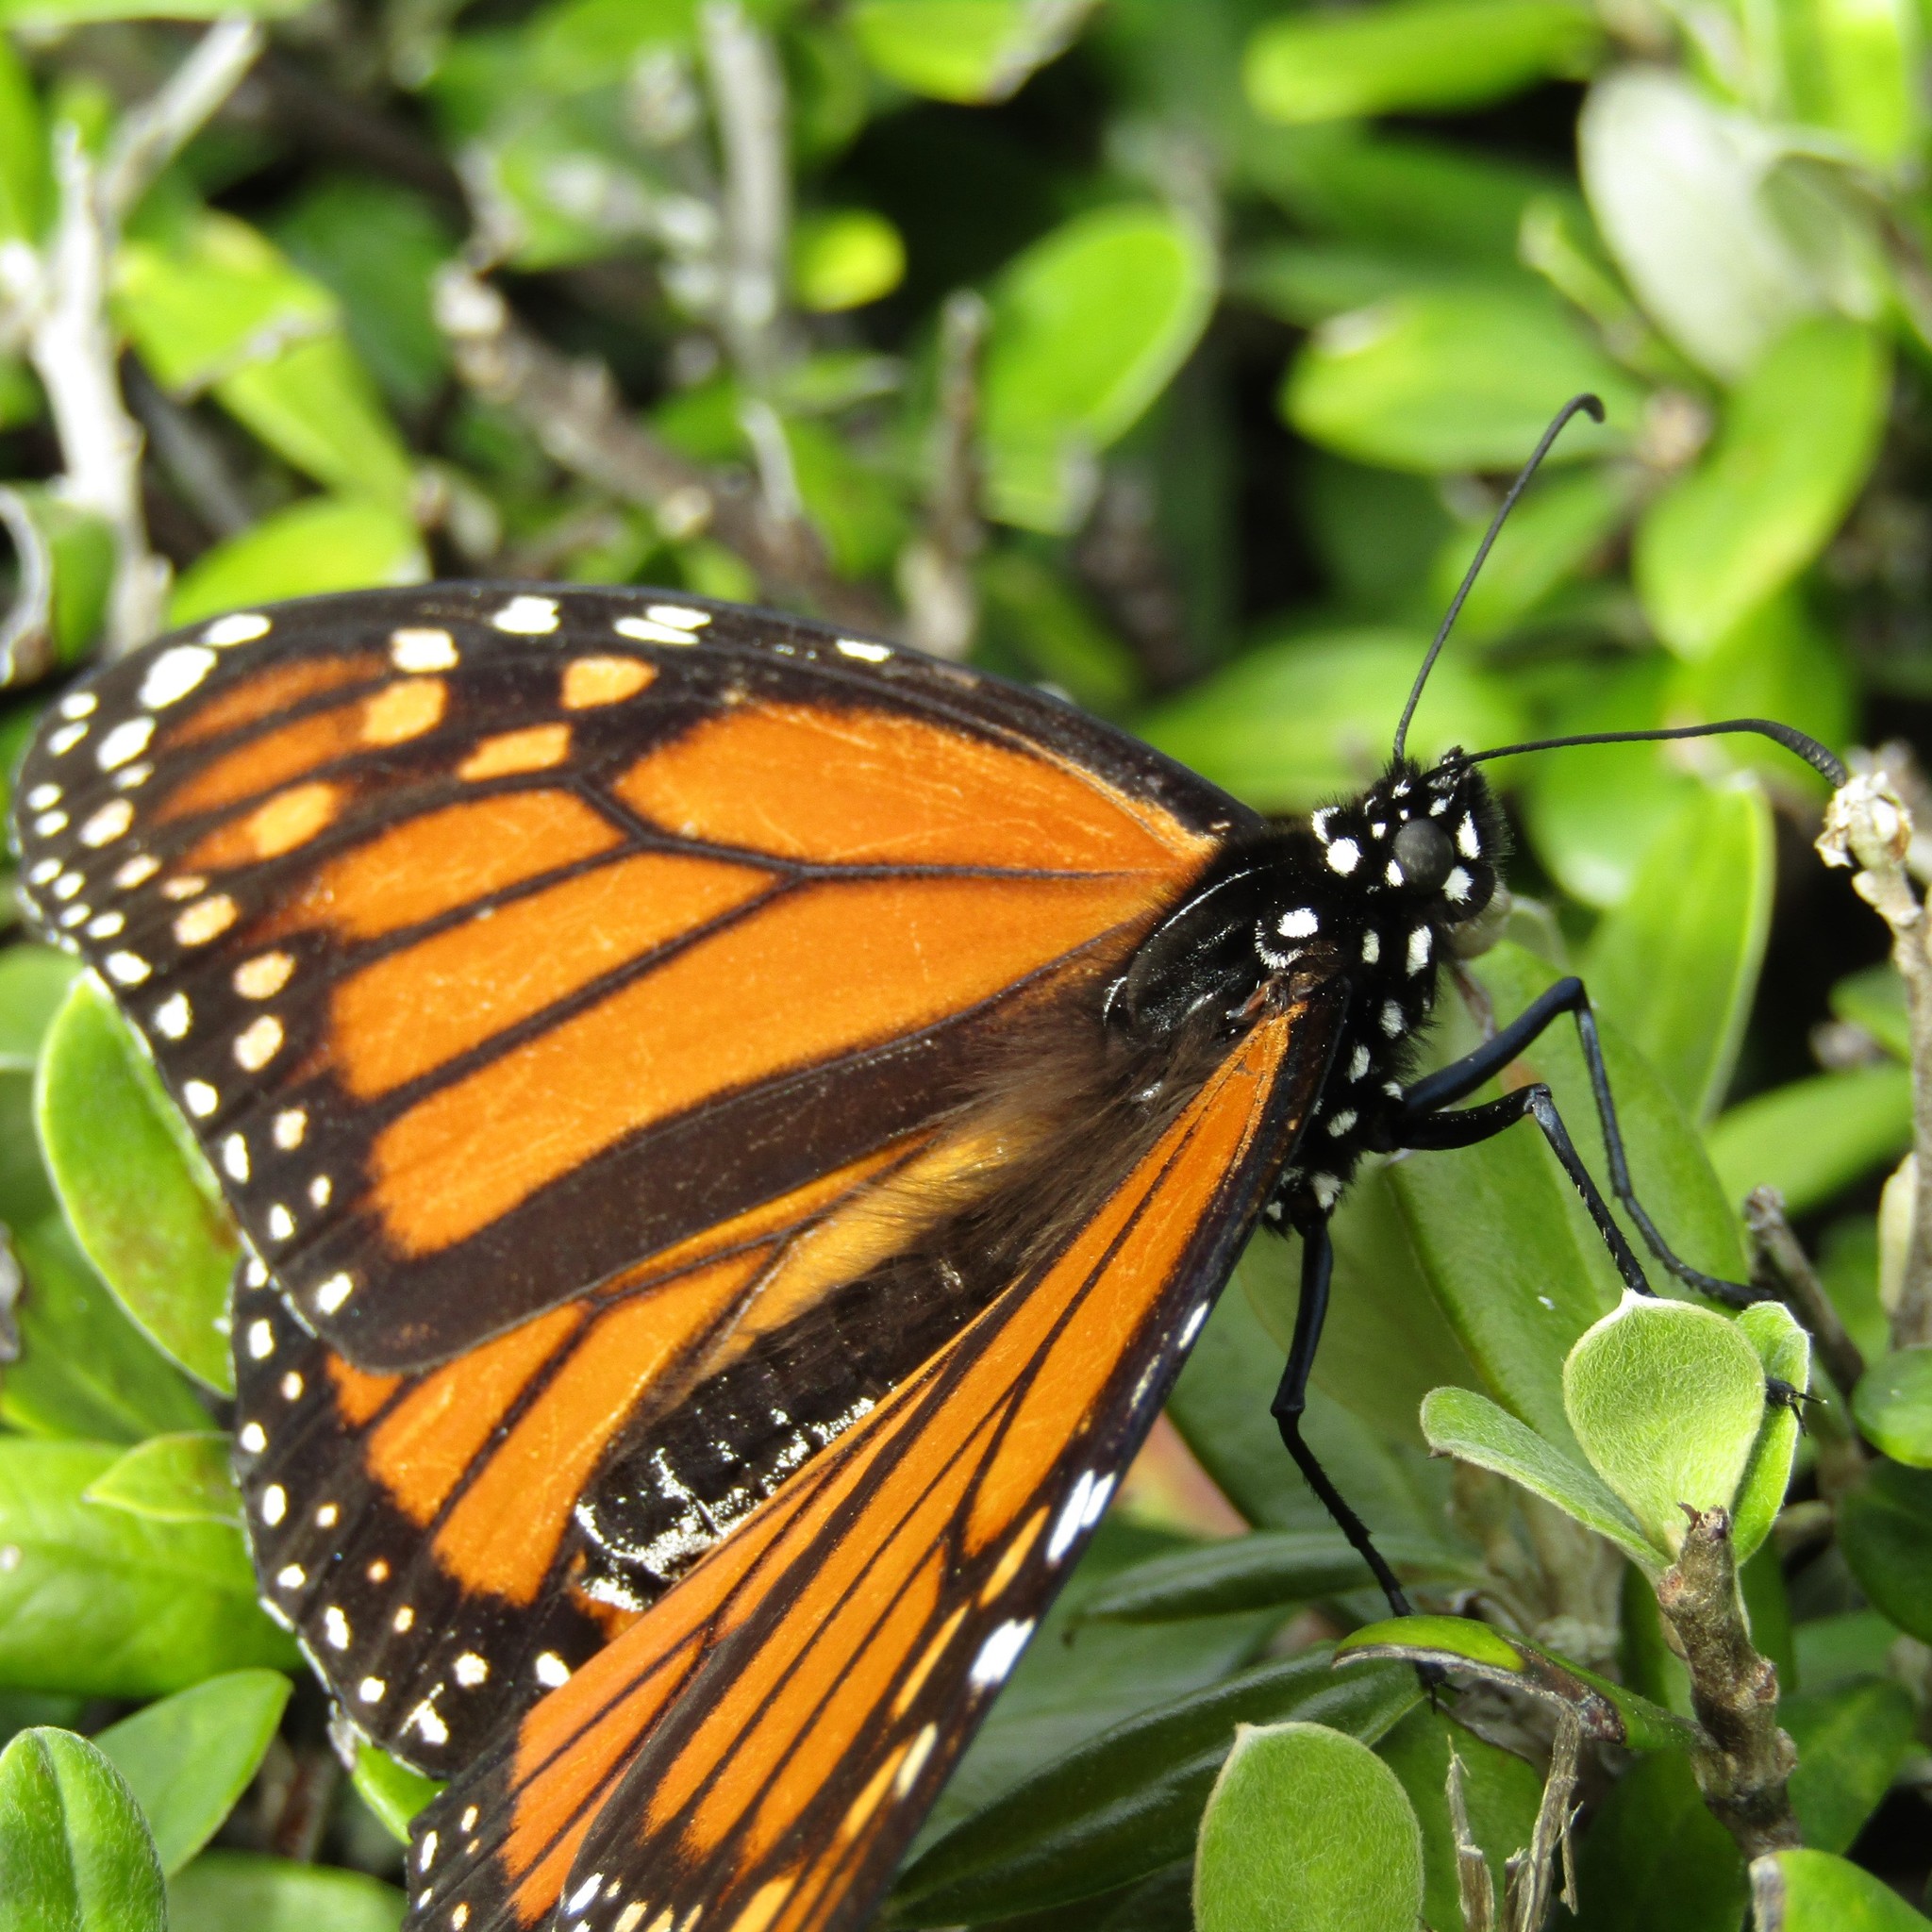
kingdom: Animalia
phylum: Arthropoda
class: Insecta
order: Lepidoptera
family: Nymphalidae
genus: Danaus
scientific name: Danaus plexippus
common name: Monarch
